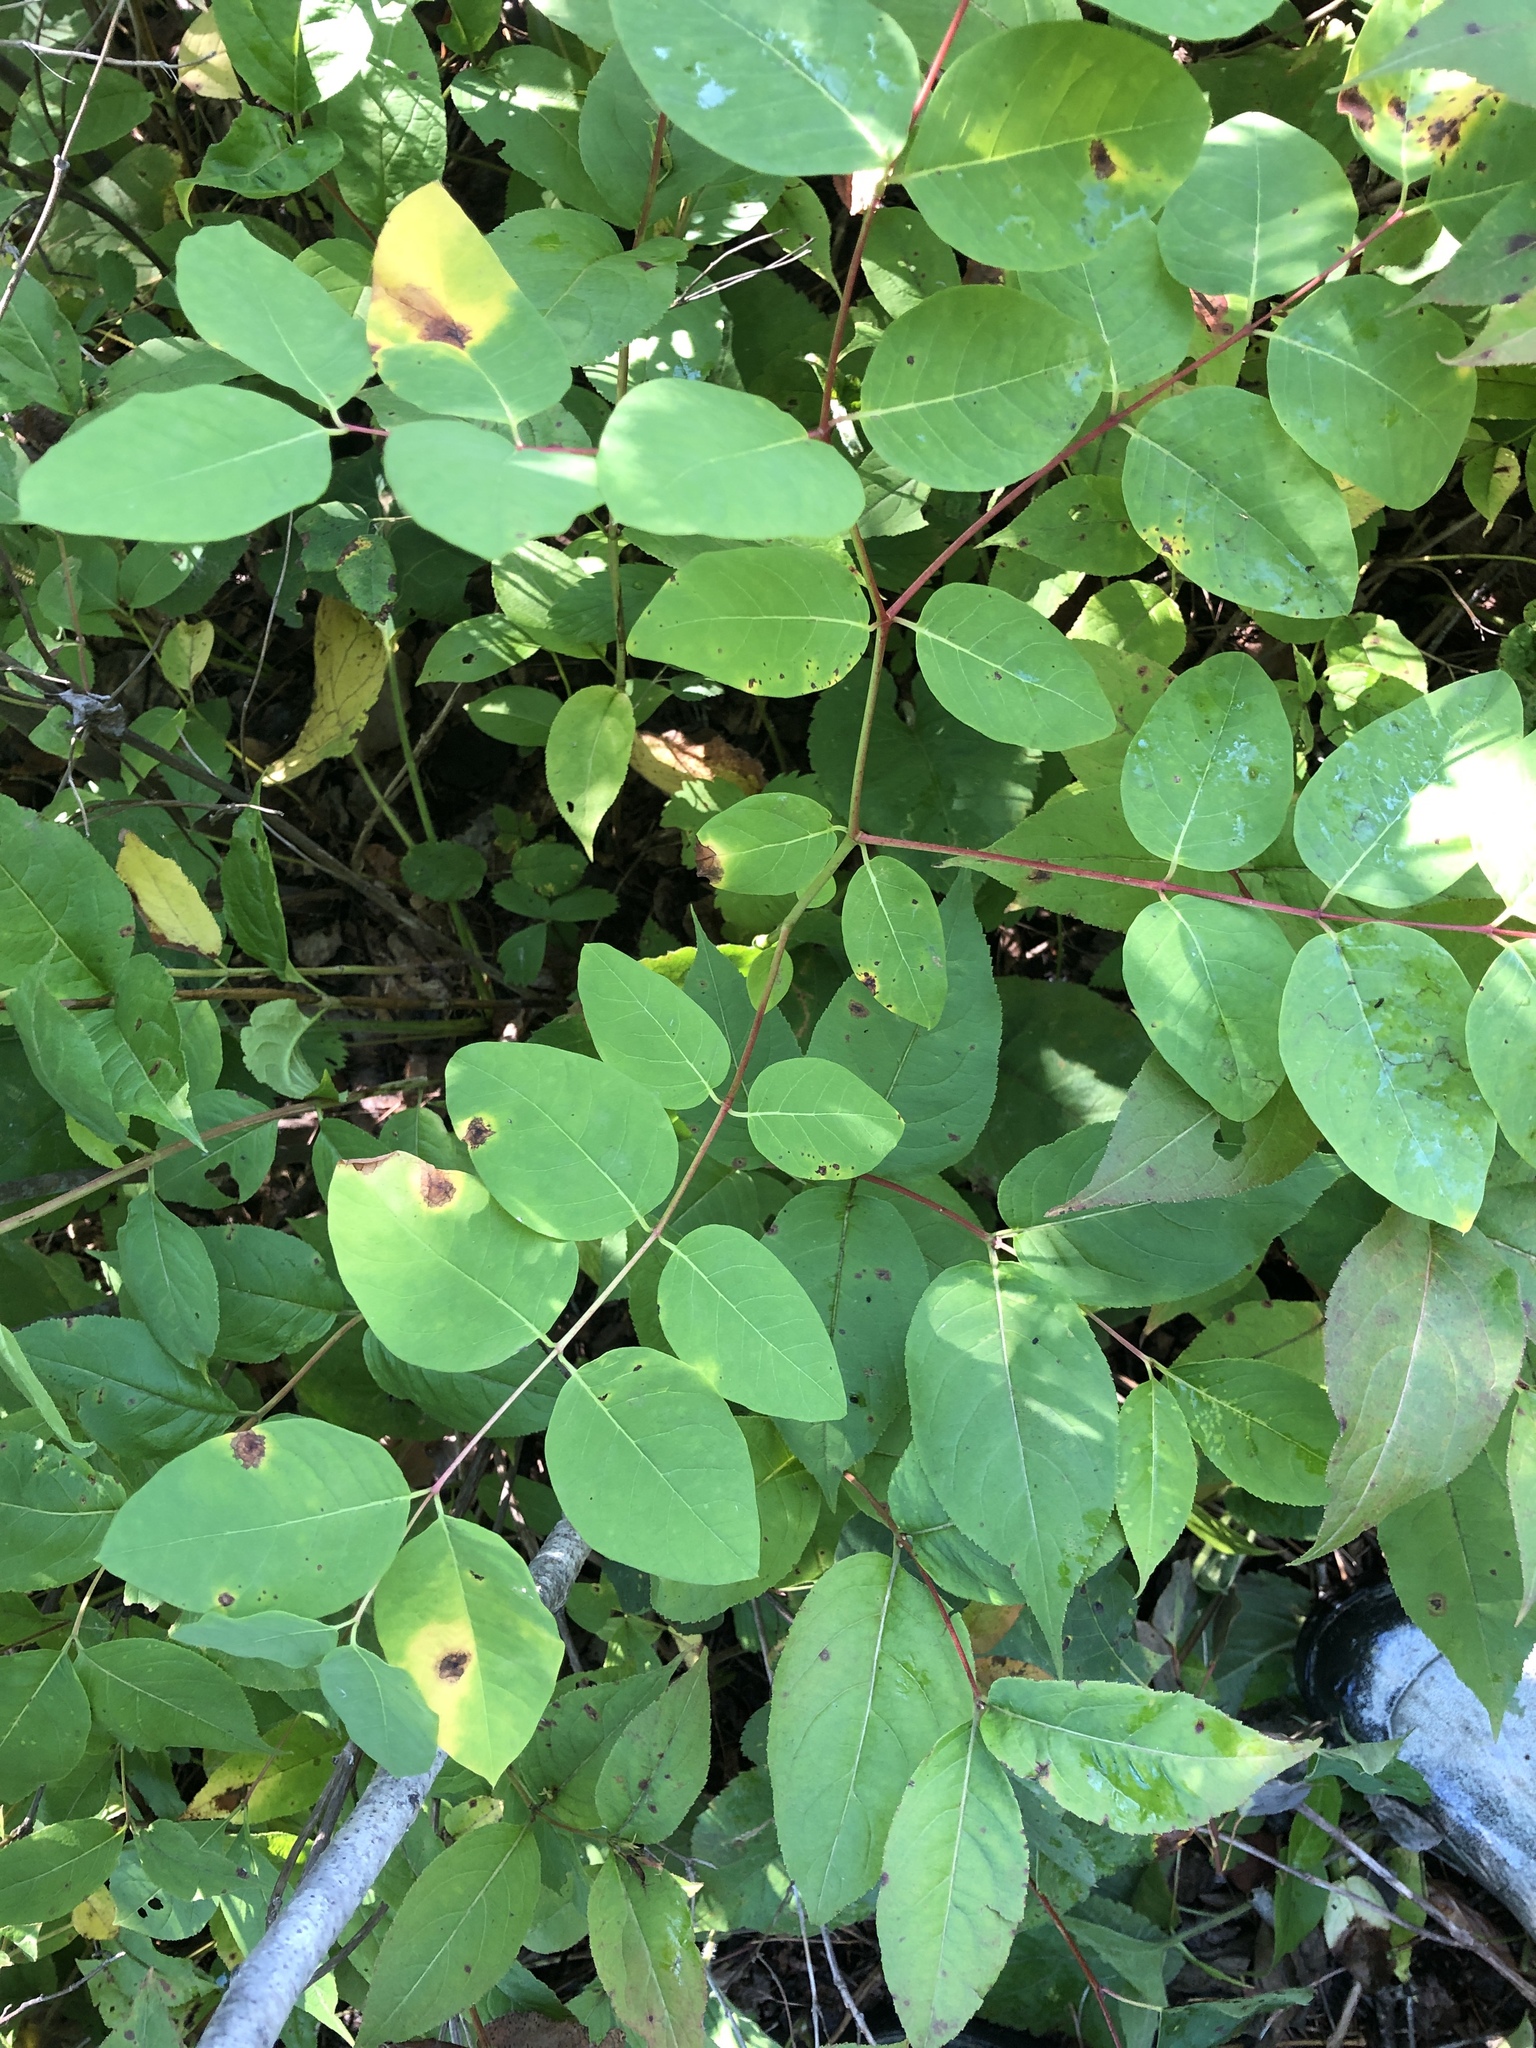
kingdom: Plantae
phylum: Tracheophyta
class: Magnoliopsida
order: Gentianales
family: Apocynaceae
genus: Apocynum
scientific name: Apocynum androsaemifolium
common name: Spreading dogbane
